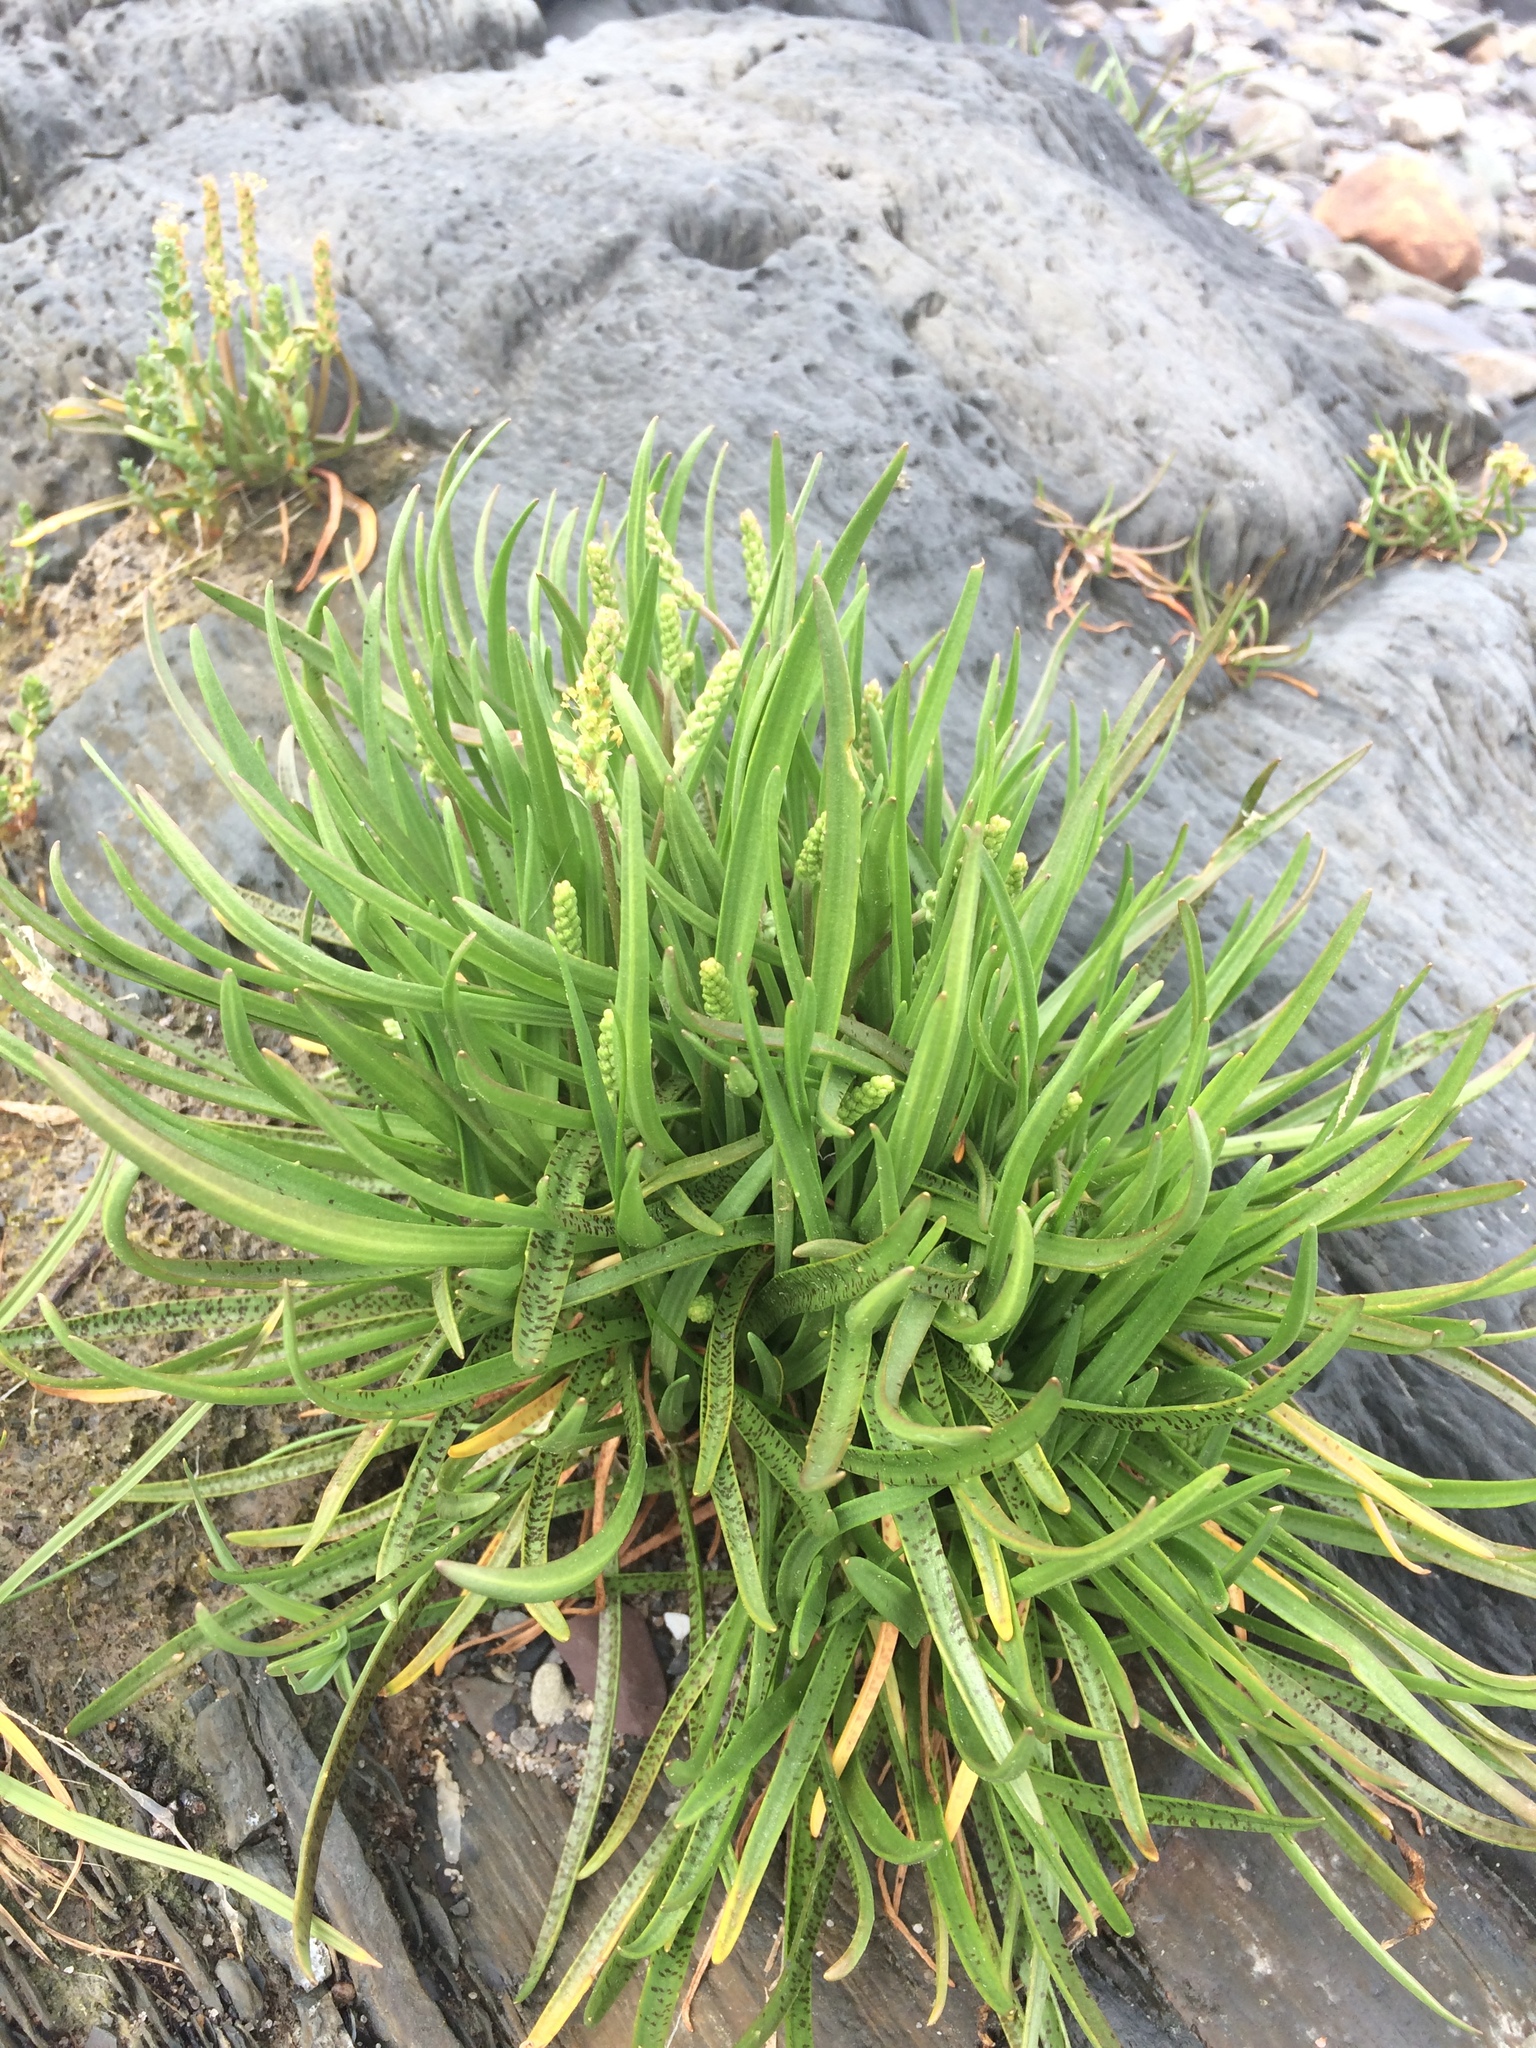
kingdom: Plantae
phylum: Tracheophyta
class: Magnoliopsida
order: Lamiales
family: Plantaginaceae
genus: Plantago
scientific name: Plantago maritima
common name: Sea plantain
